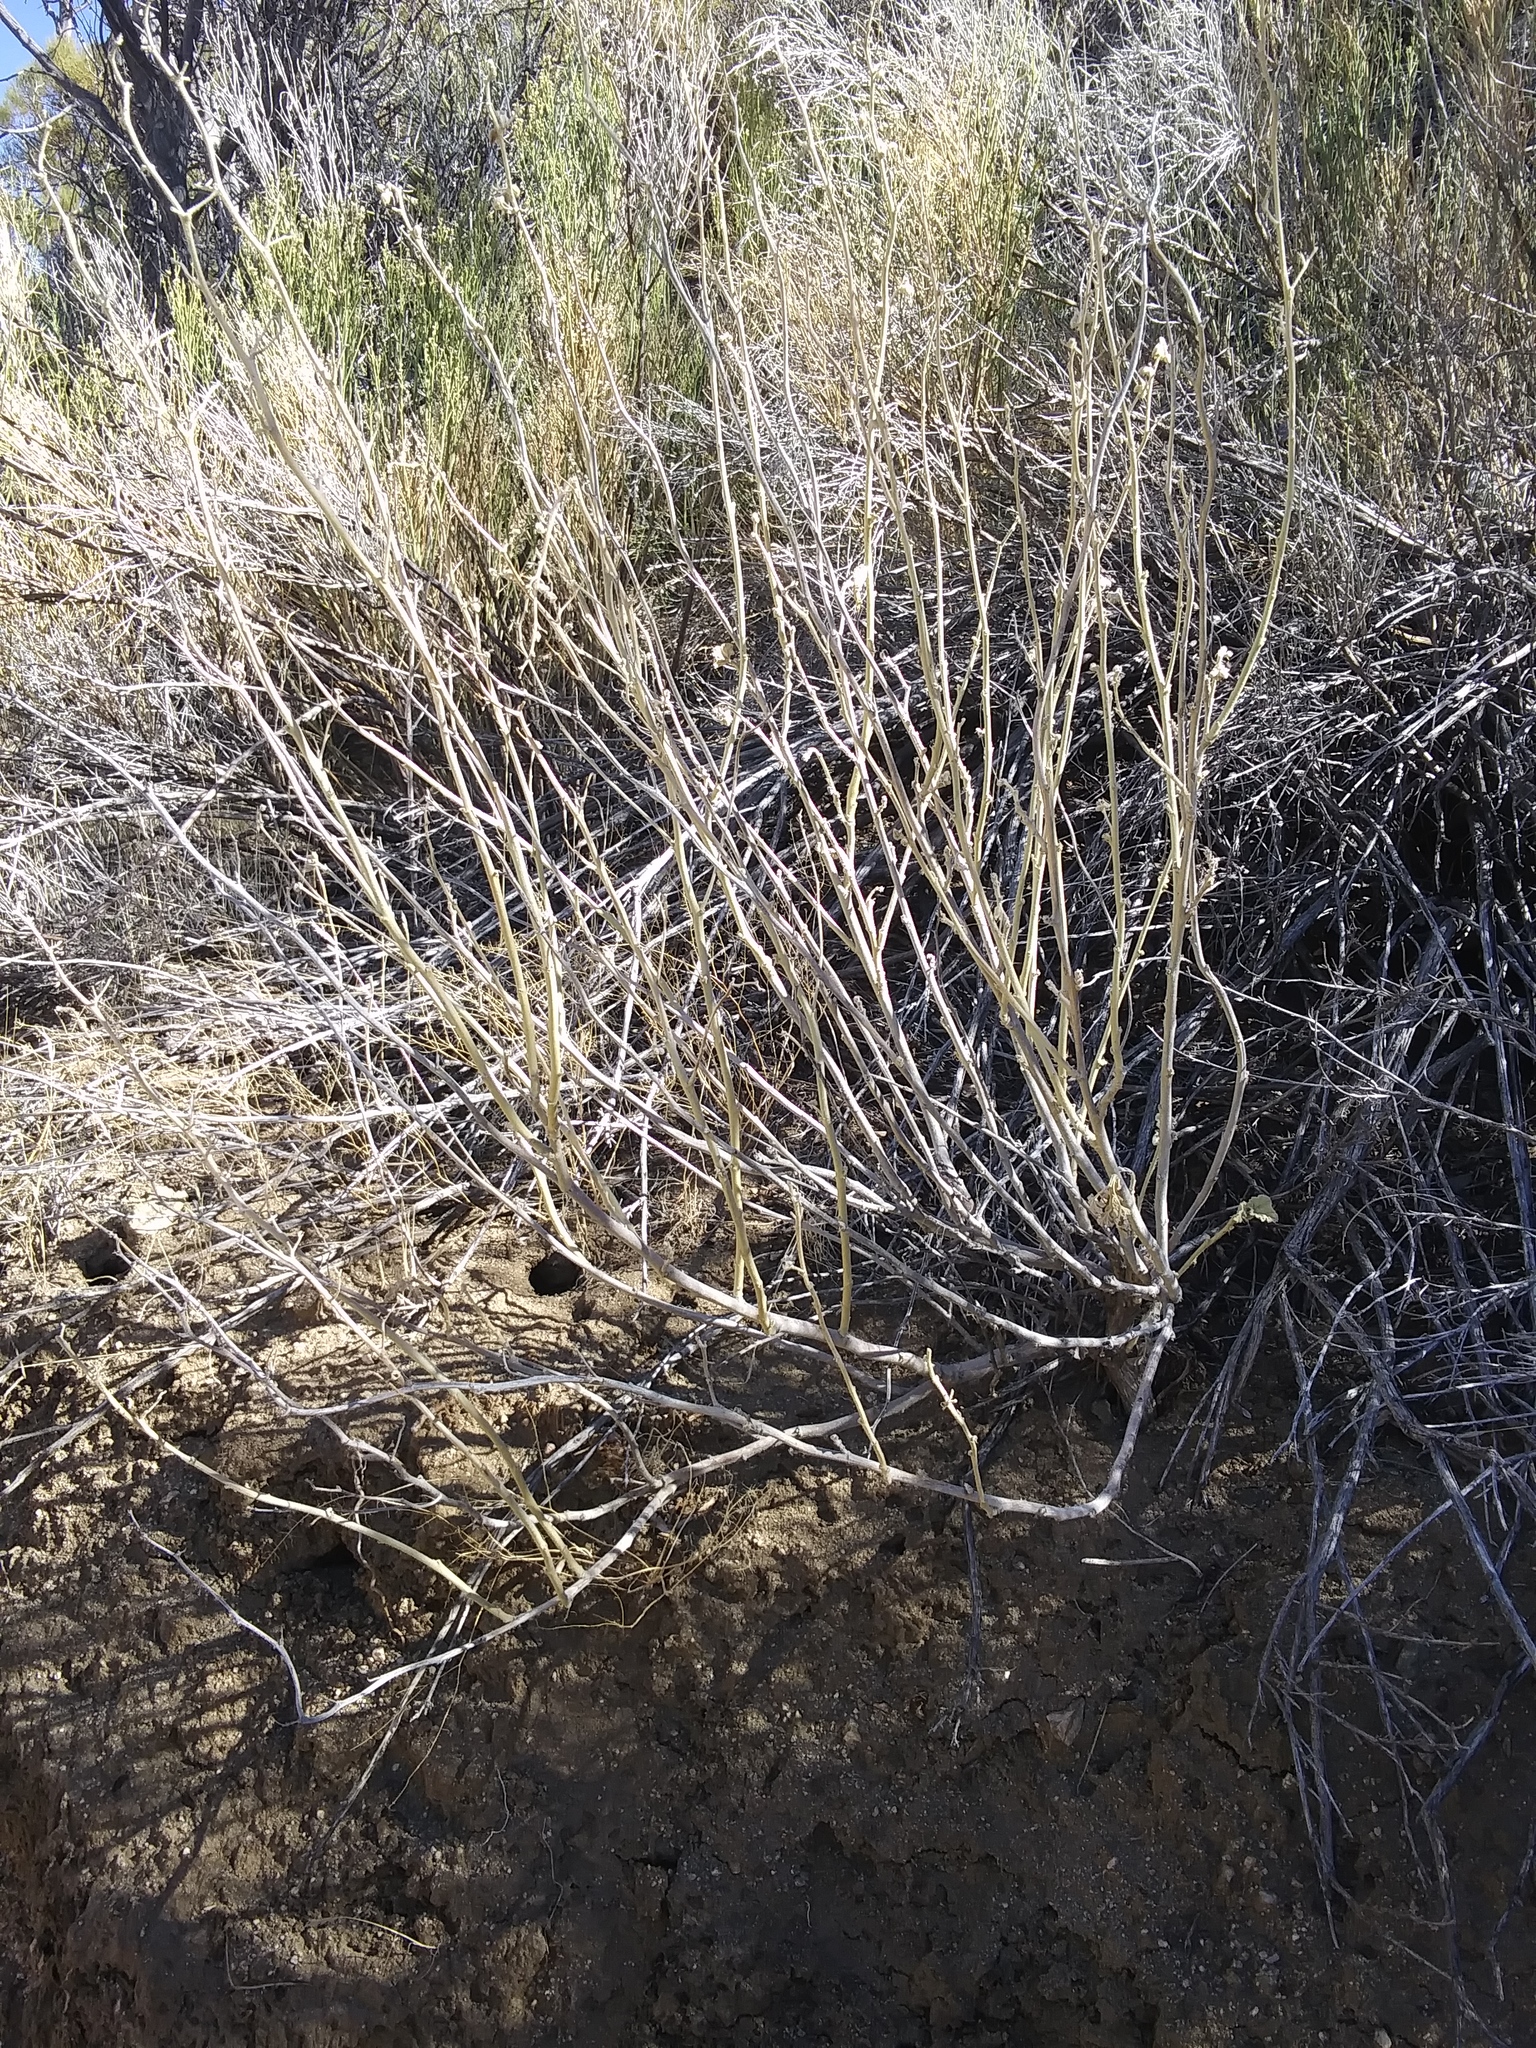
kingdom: Plantae
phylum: Tracheophyta
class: Magnoliopsida
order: Malvales
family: Malvaceae
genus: Sphaeralcea
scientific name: Sphaeralcea ambigua
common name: Apricot globe-mallow
